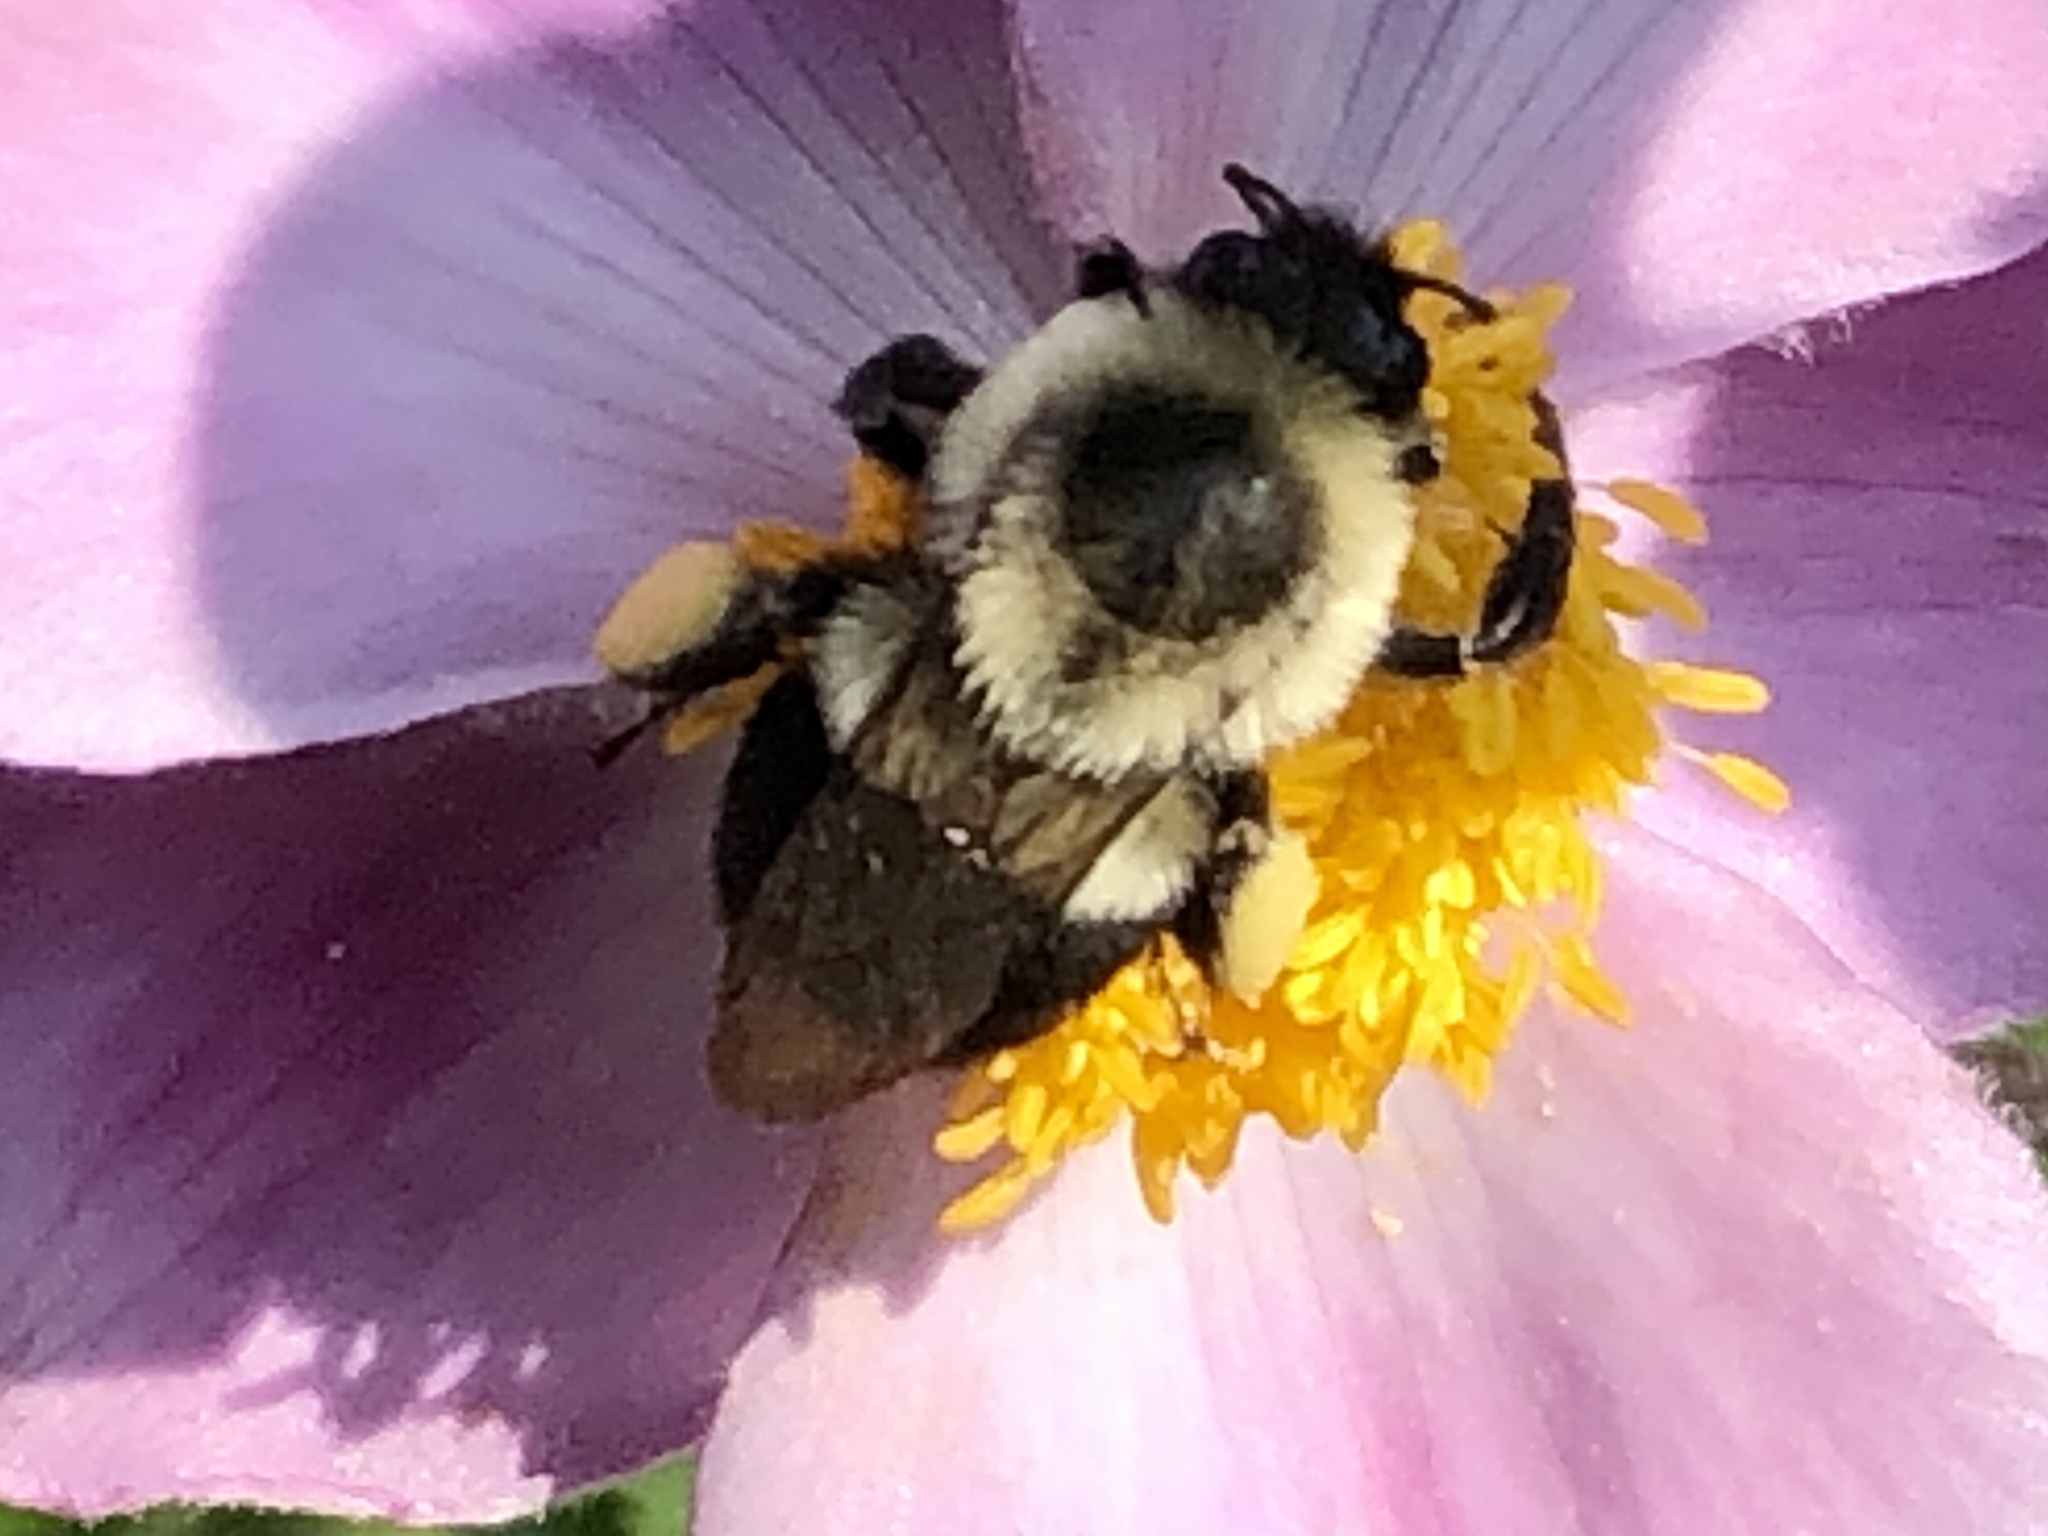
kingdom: Animalia
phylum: Arthropoda
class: Insecta
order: Hymenoptera
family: Apidae
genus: Bombus
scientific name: Bombus impatiens
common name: Common eastern bumble bee
